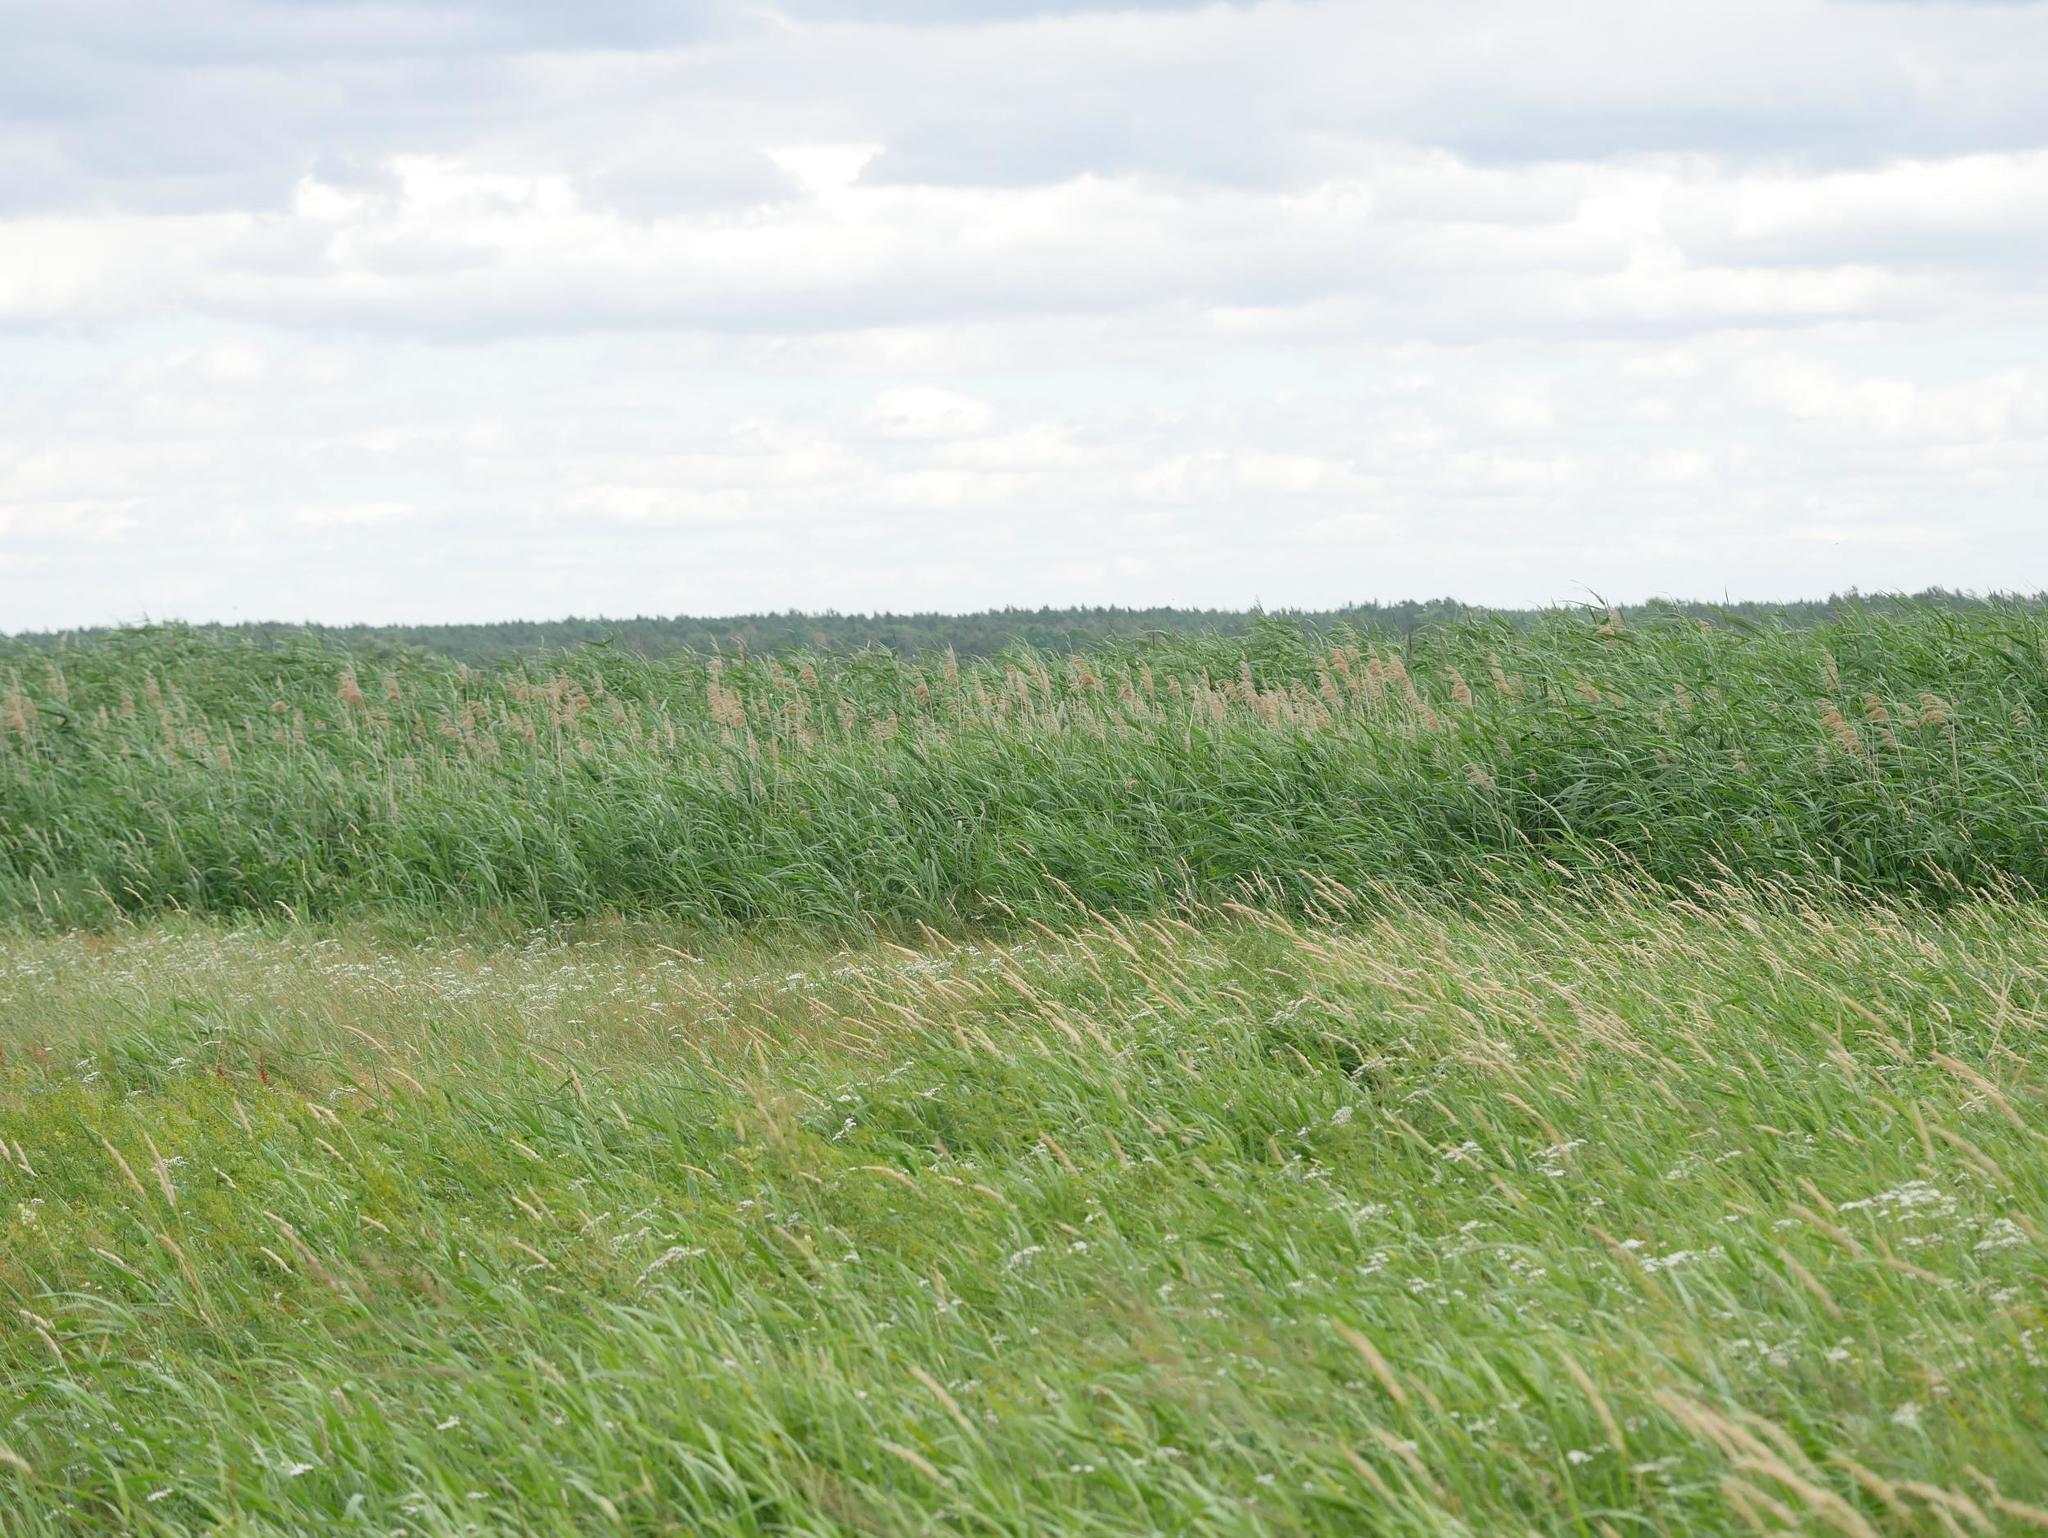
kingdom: Plantae
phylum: Tracheophyta
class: Liliopsida
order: Poales
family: Poaceae
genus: Phragmites
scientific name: Phragmites australis
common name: Common reed
